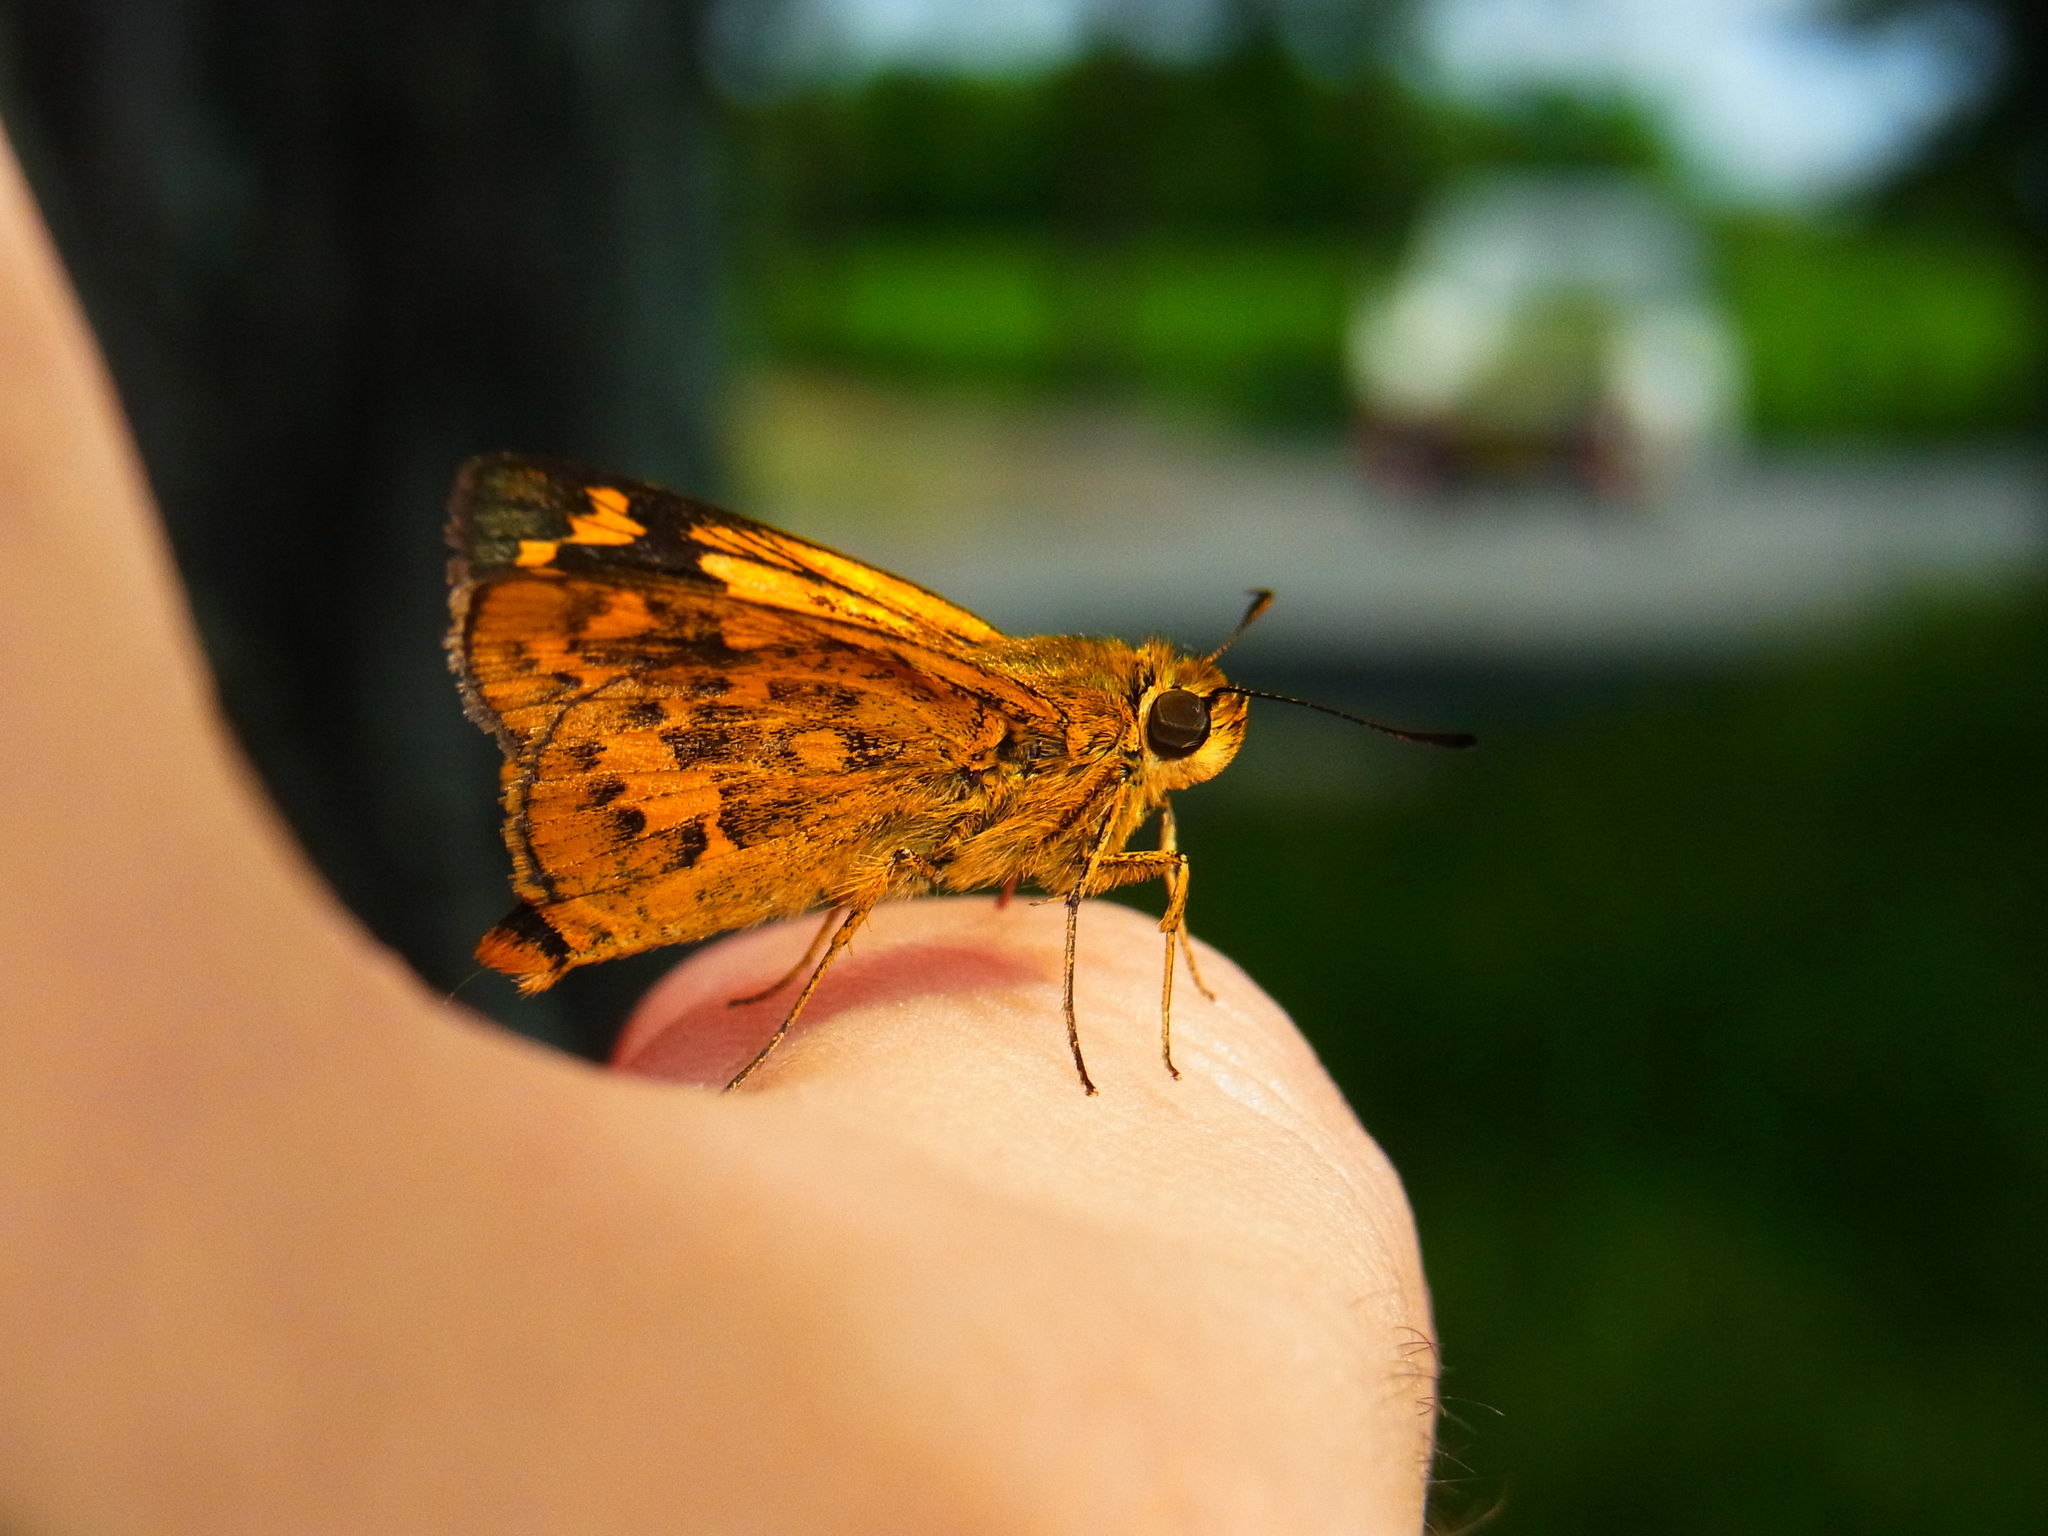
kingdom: Animalia
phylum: Arthropoda
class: Insecta
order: Lepidoptera
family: Hesperiidae
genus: Potanthus
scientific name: Potanthus flava
